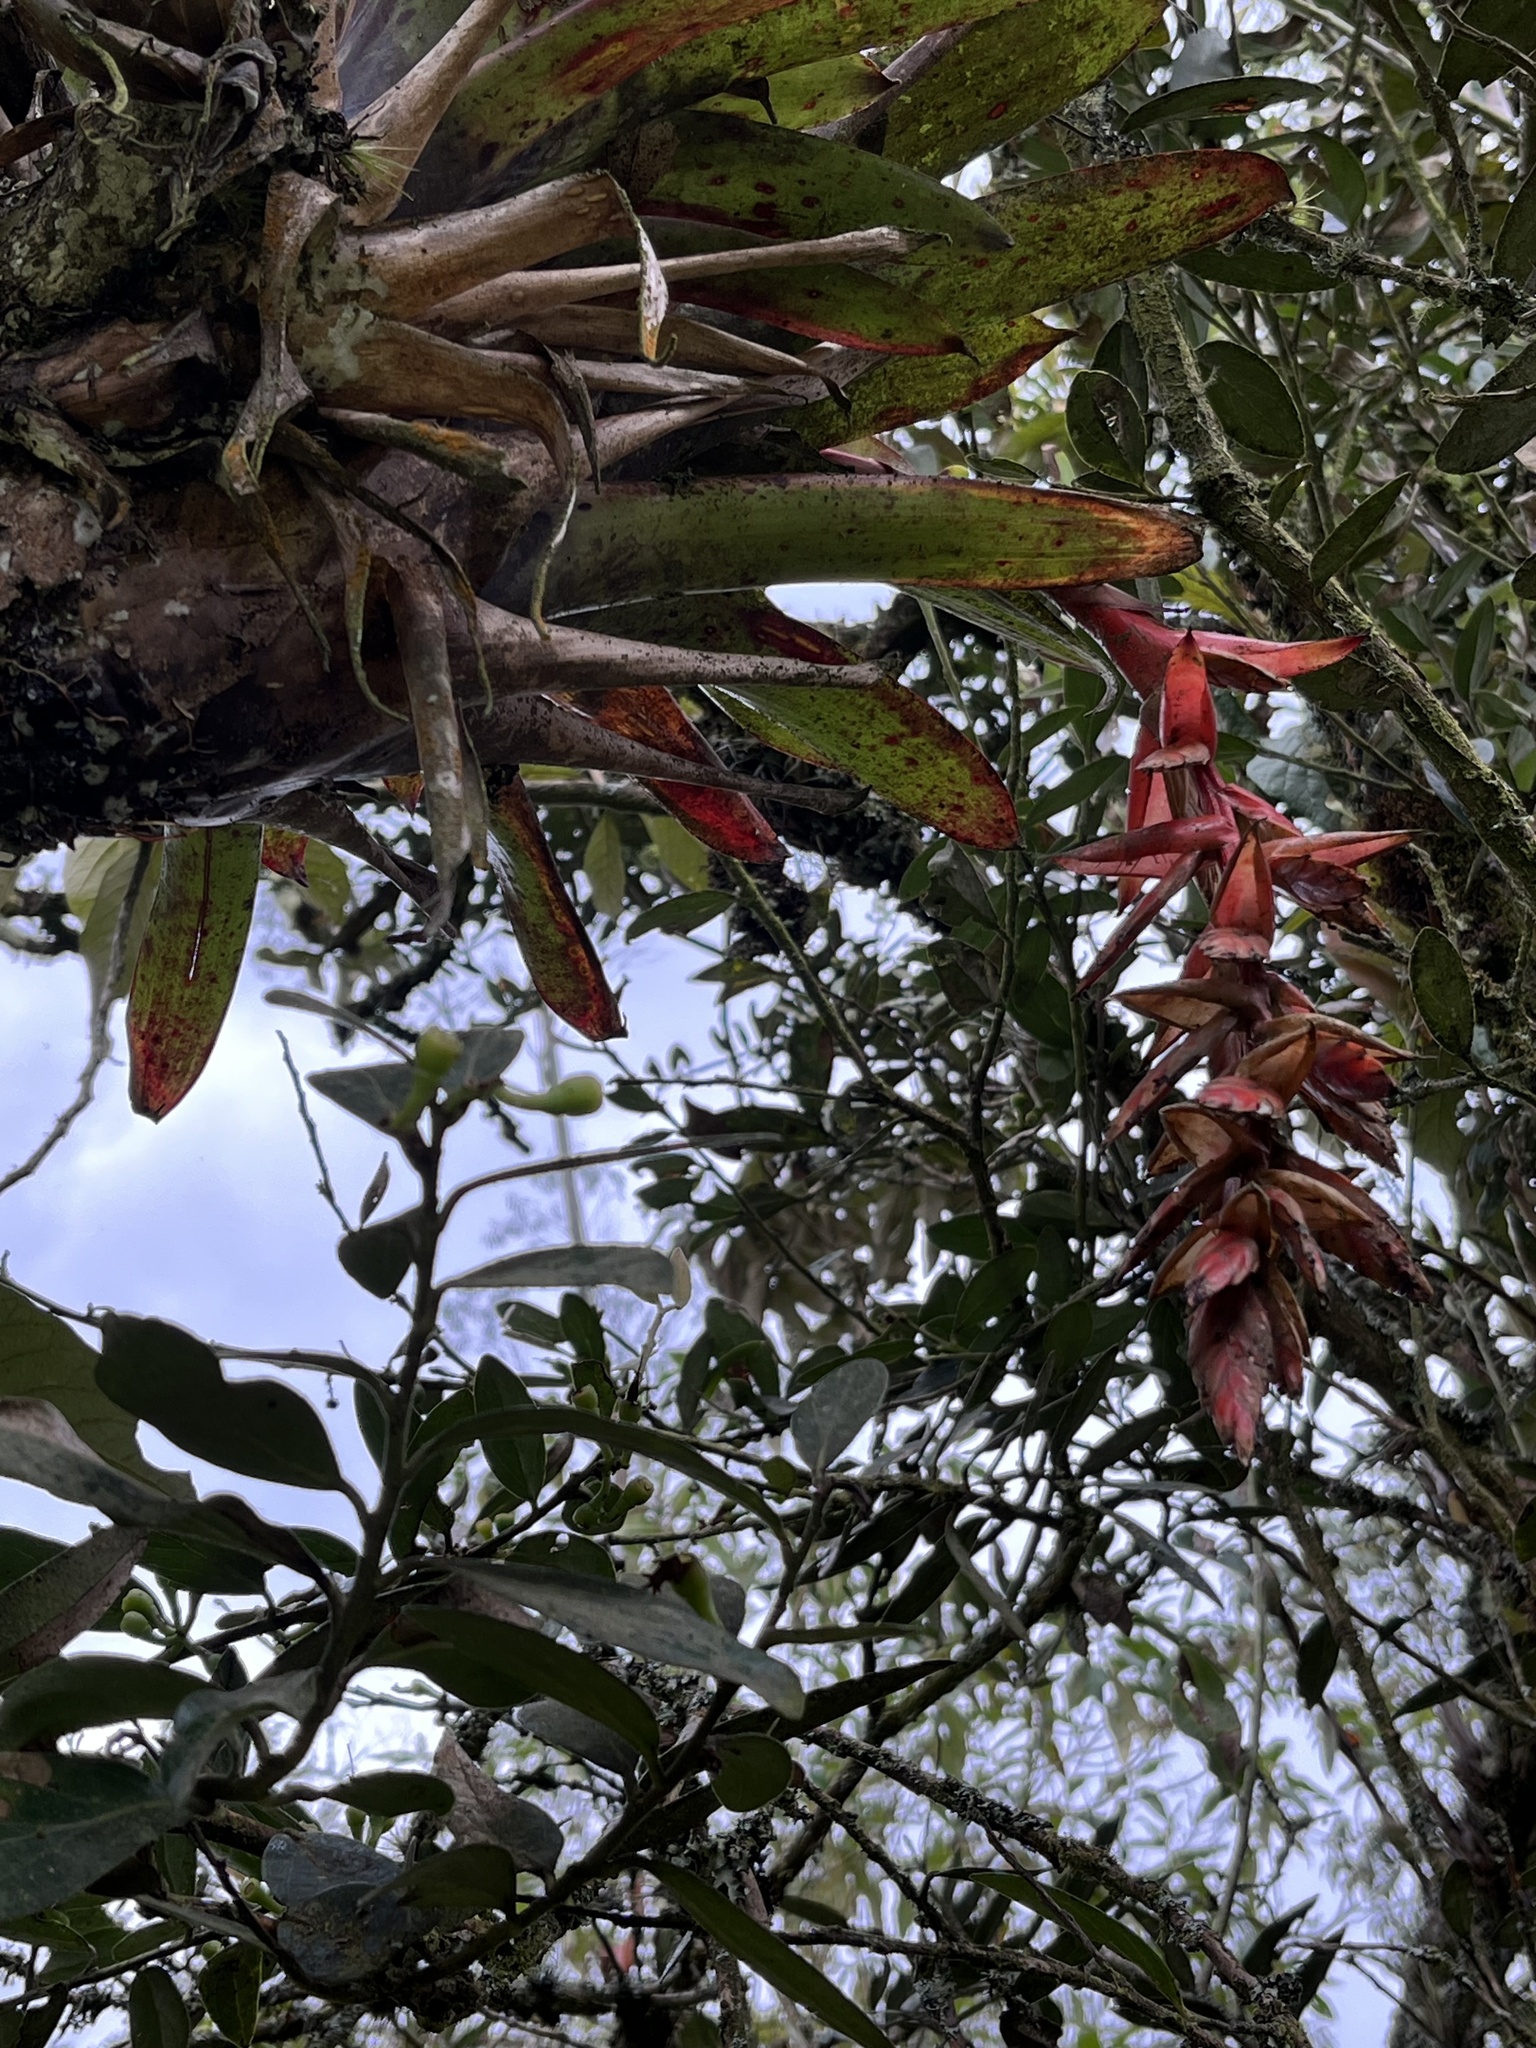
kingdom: Plantae
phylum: Tracheophyta
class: Liliopsida
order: Poales
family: Bromeliaceae
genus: Tillandsia
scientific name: Tillandsia compacta
